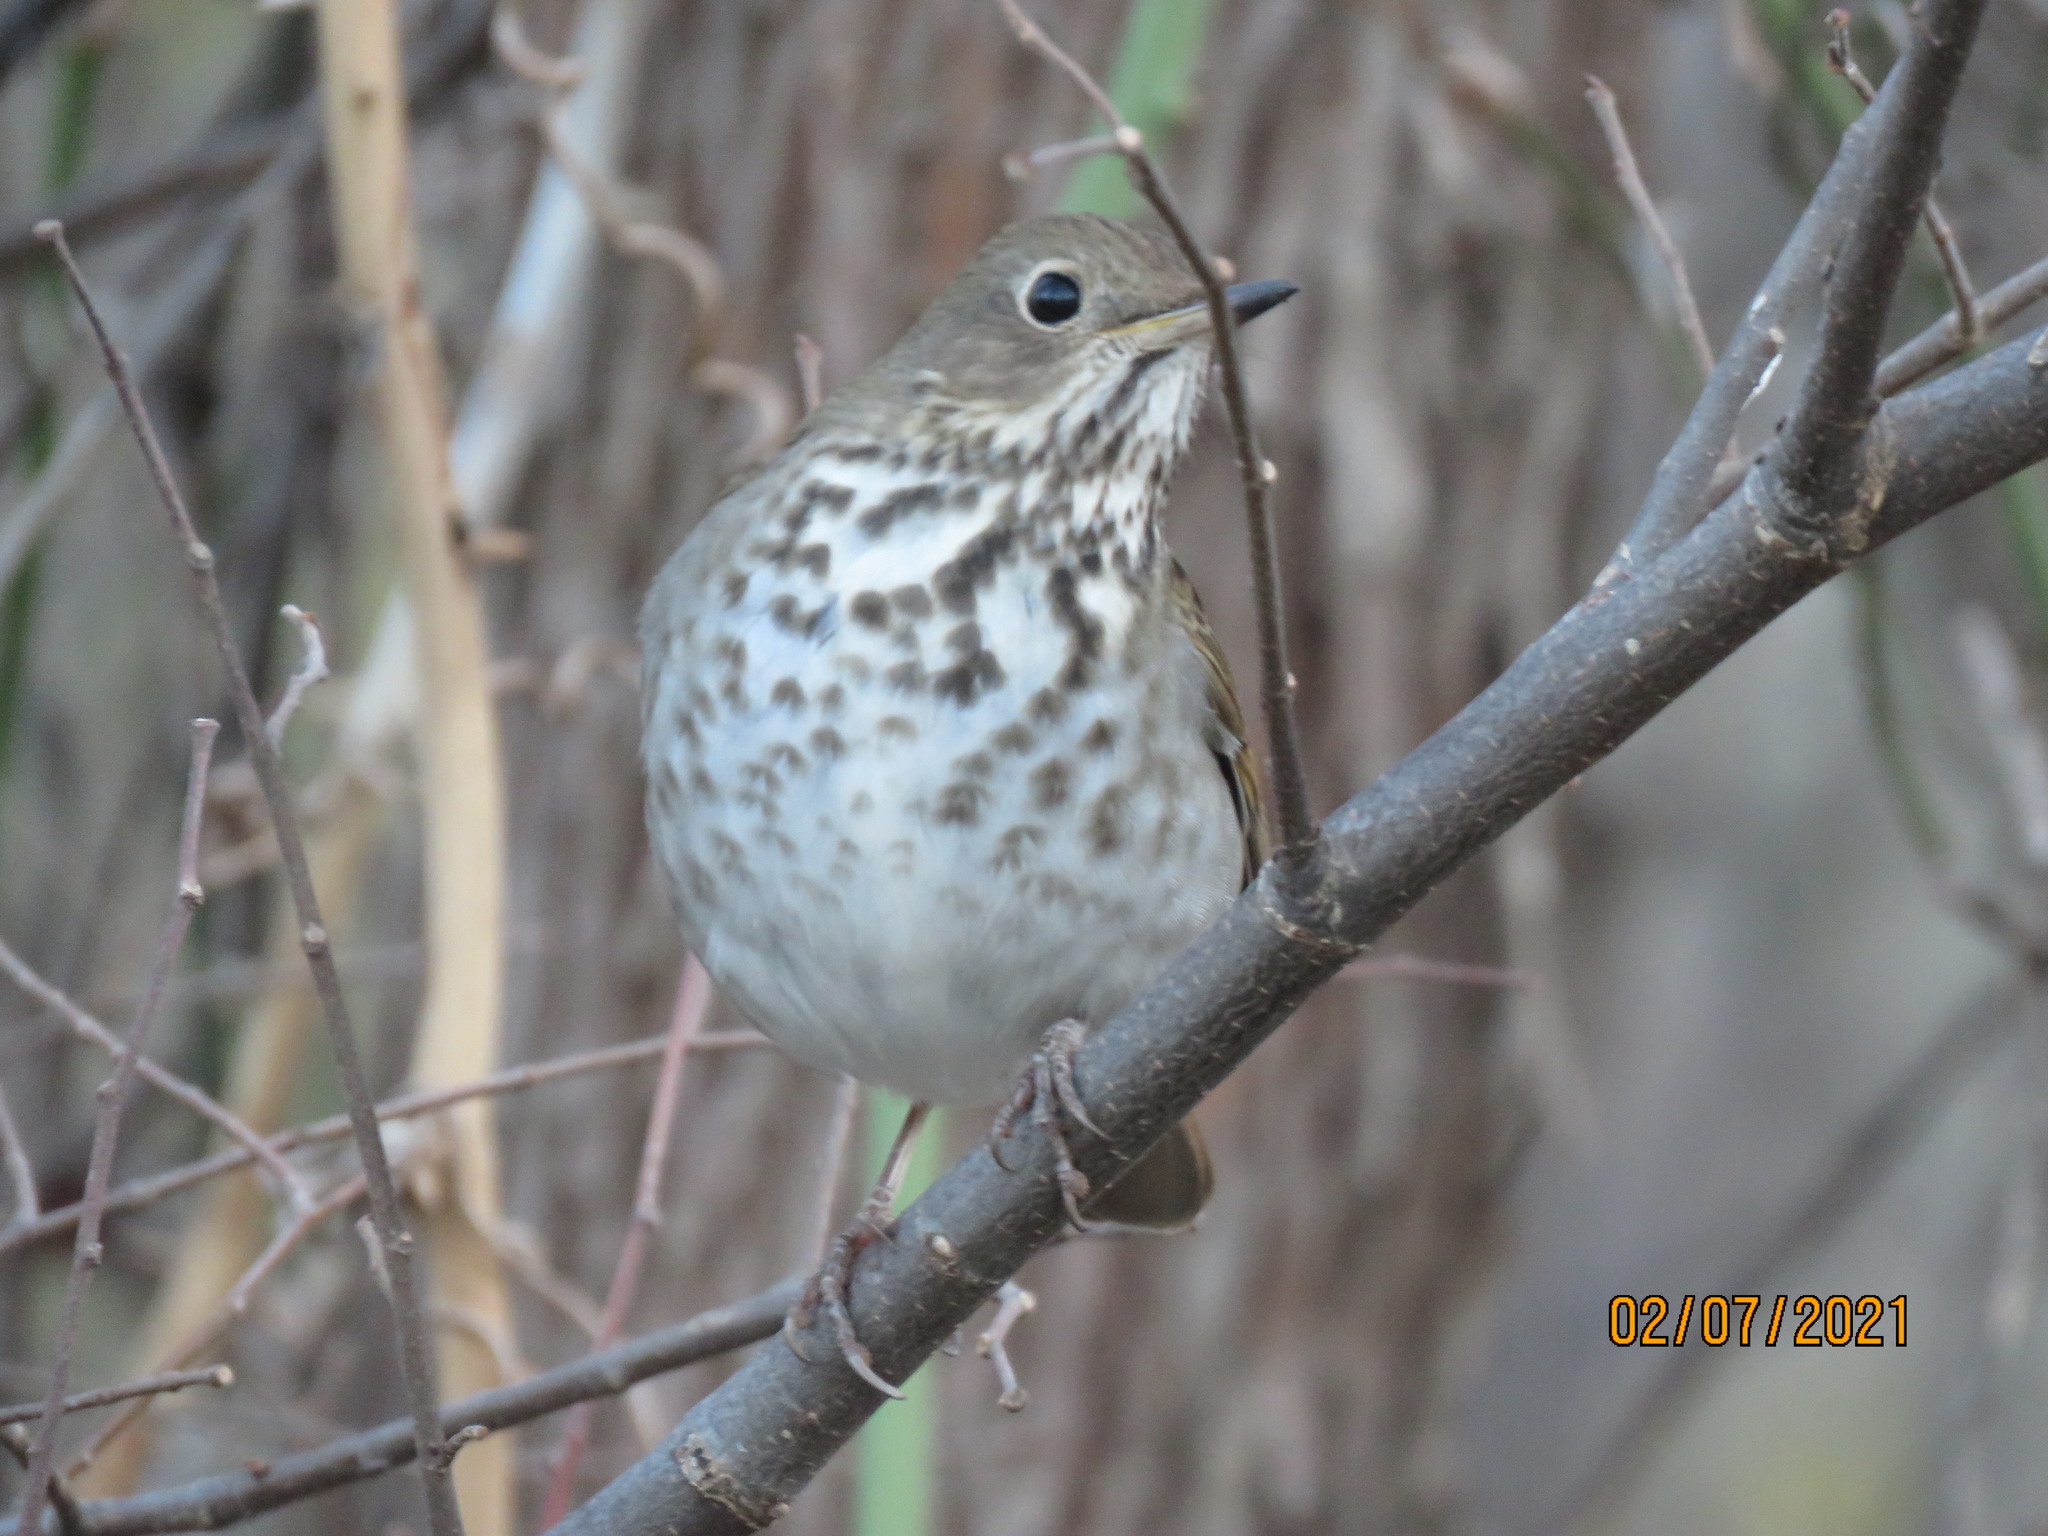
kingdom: Animalia
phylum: Chordata
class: Aves
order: Passeriformes
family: Turdidae
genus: Catharus
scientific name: Catharus guttatus
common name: Hermit thrush
